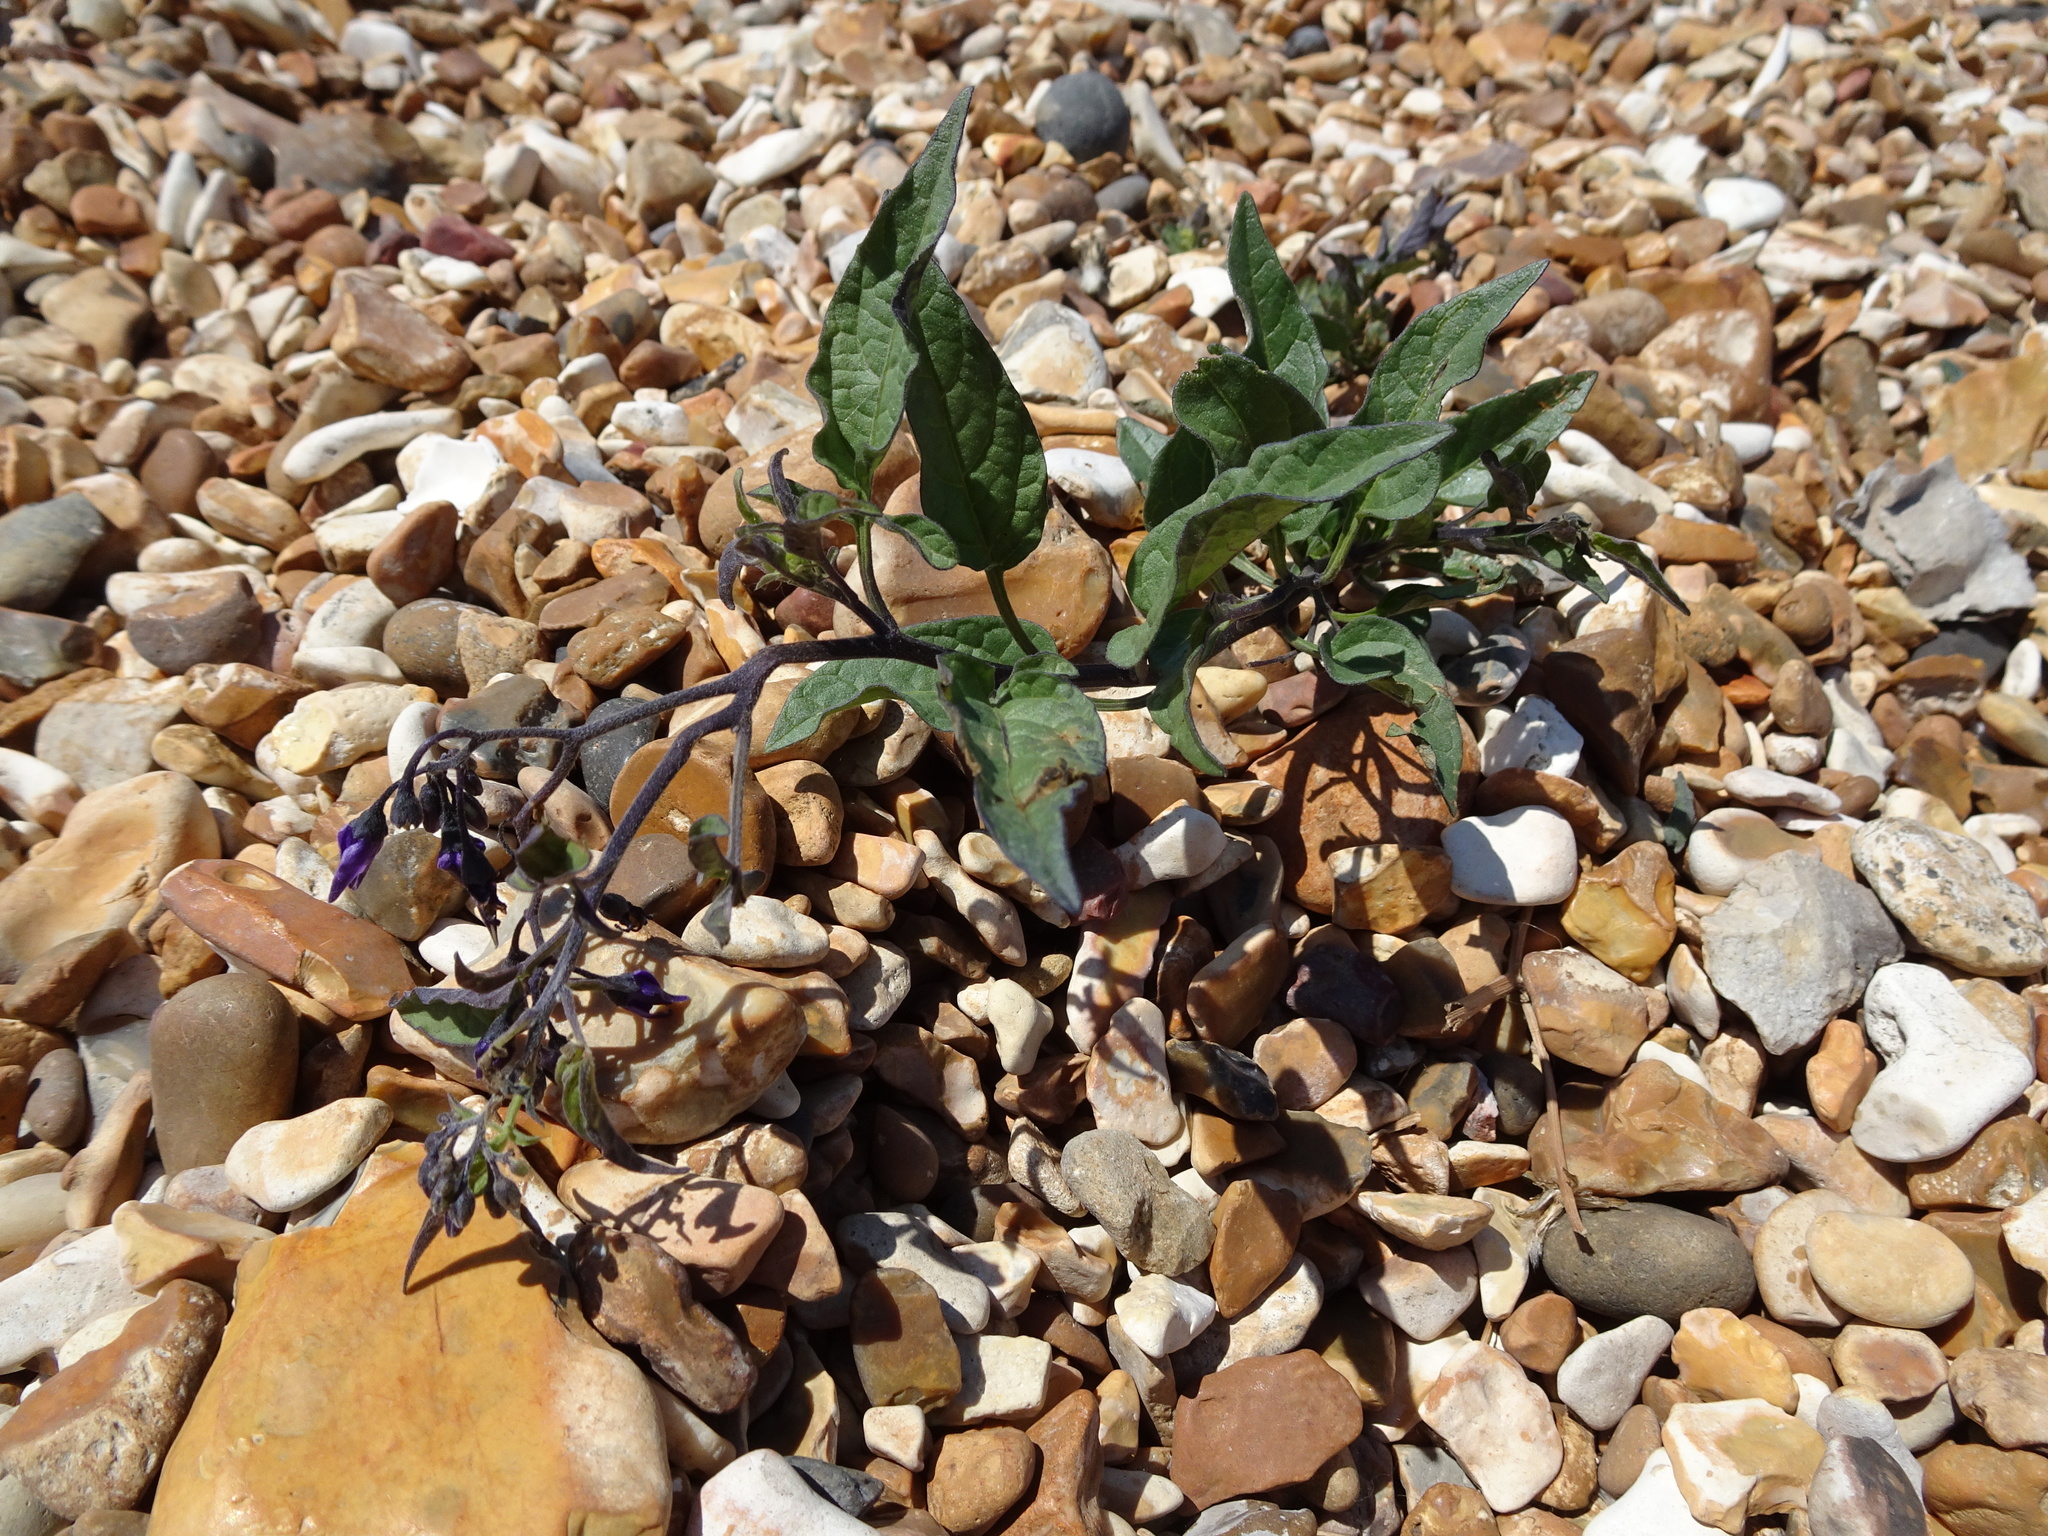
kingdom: Plantae
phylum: Tracheophyta
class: Magnoliopsida
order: Solanales
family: Solanaceae
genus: Solanum
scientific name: Solanum dulcamara
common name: Climbing nightshade
